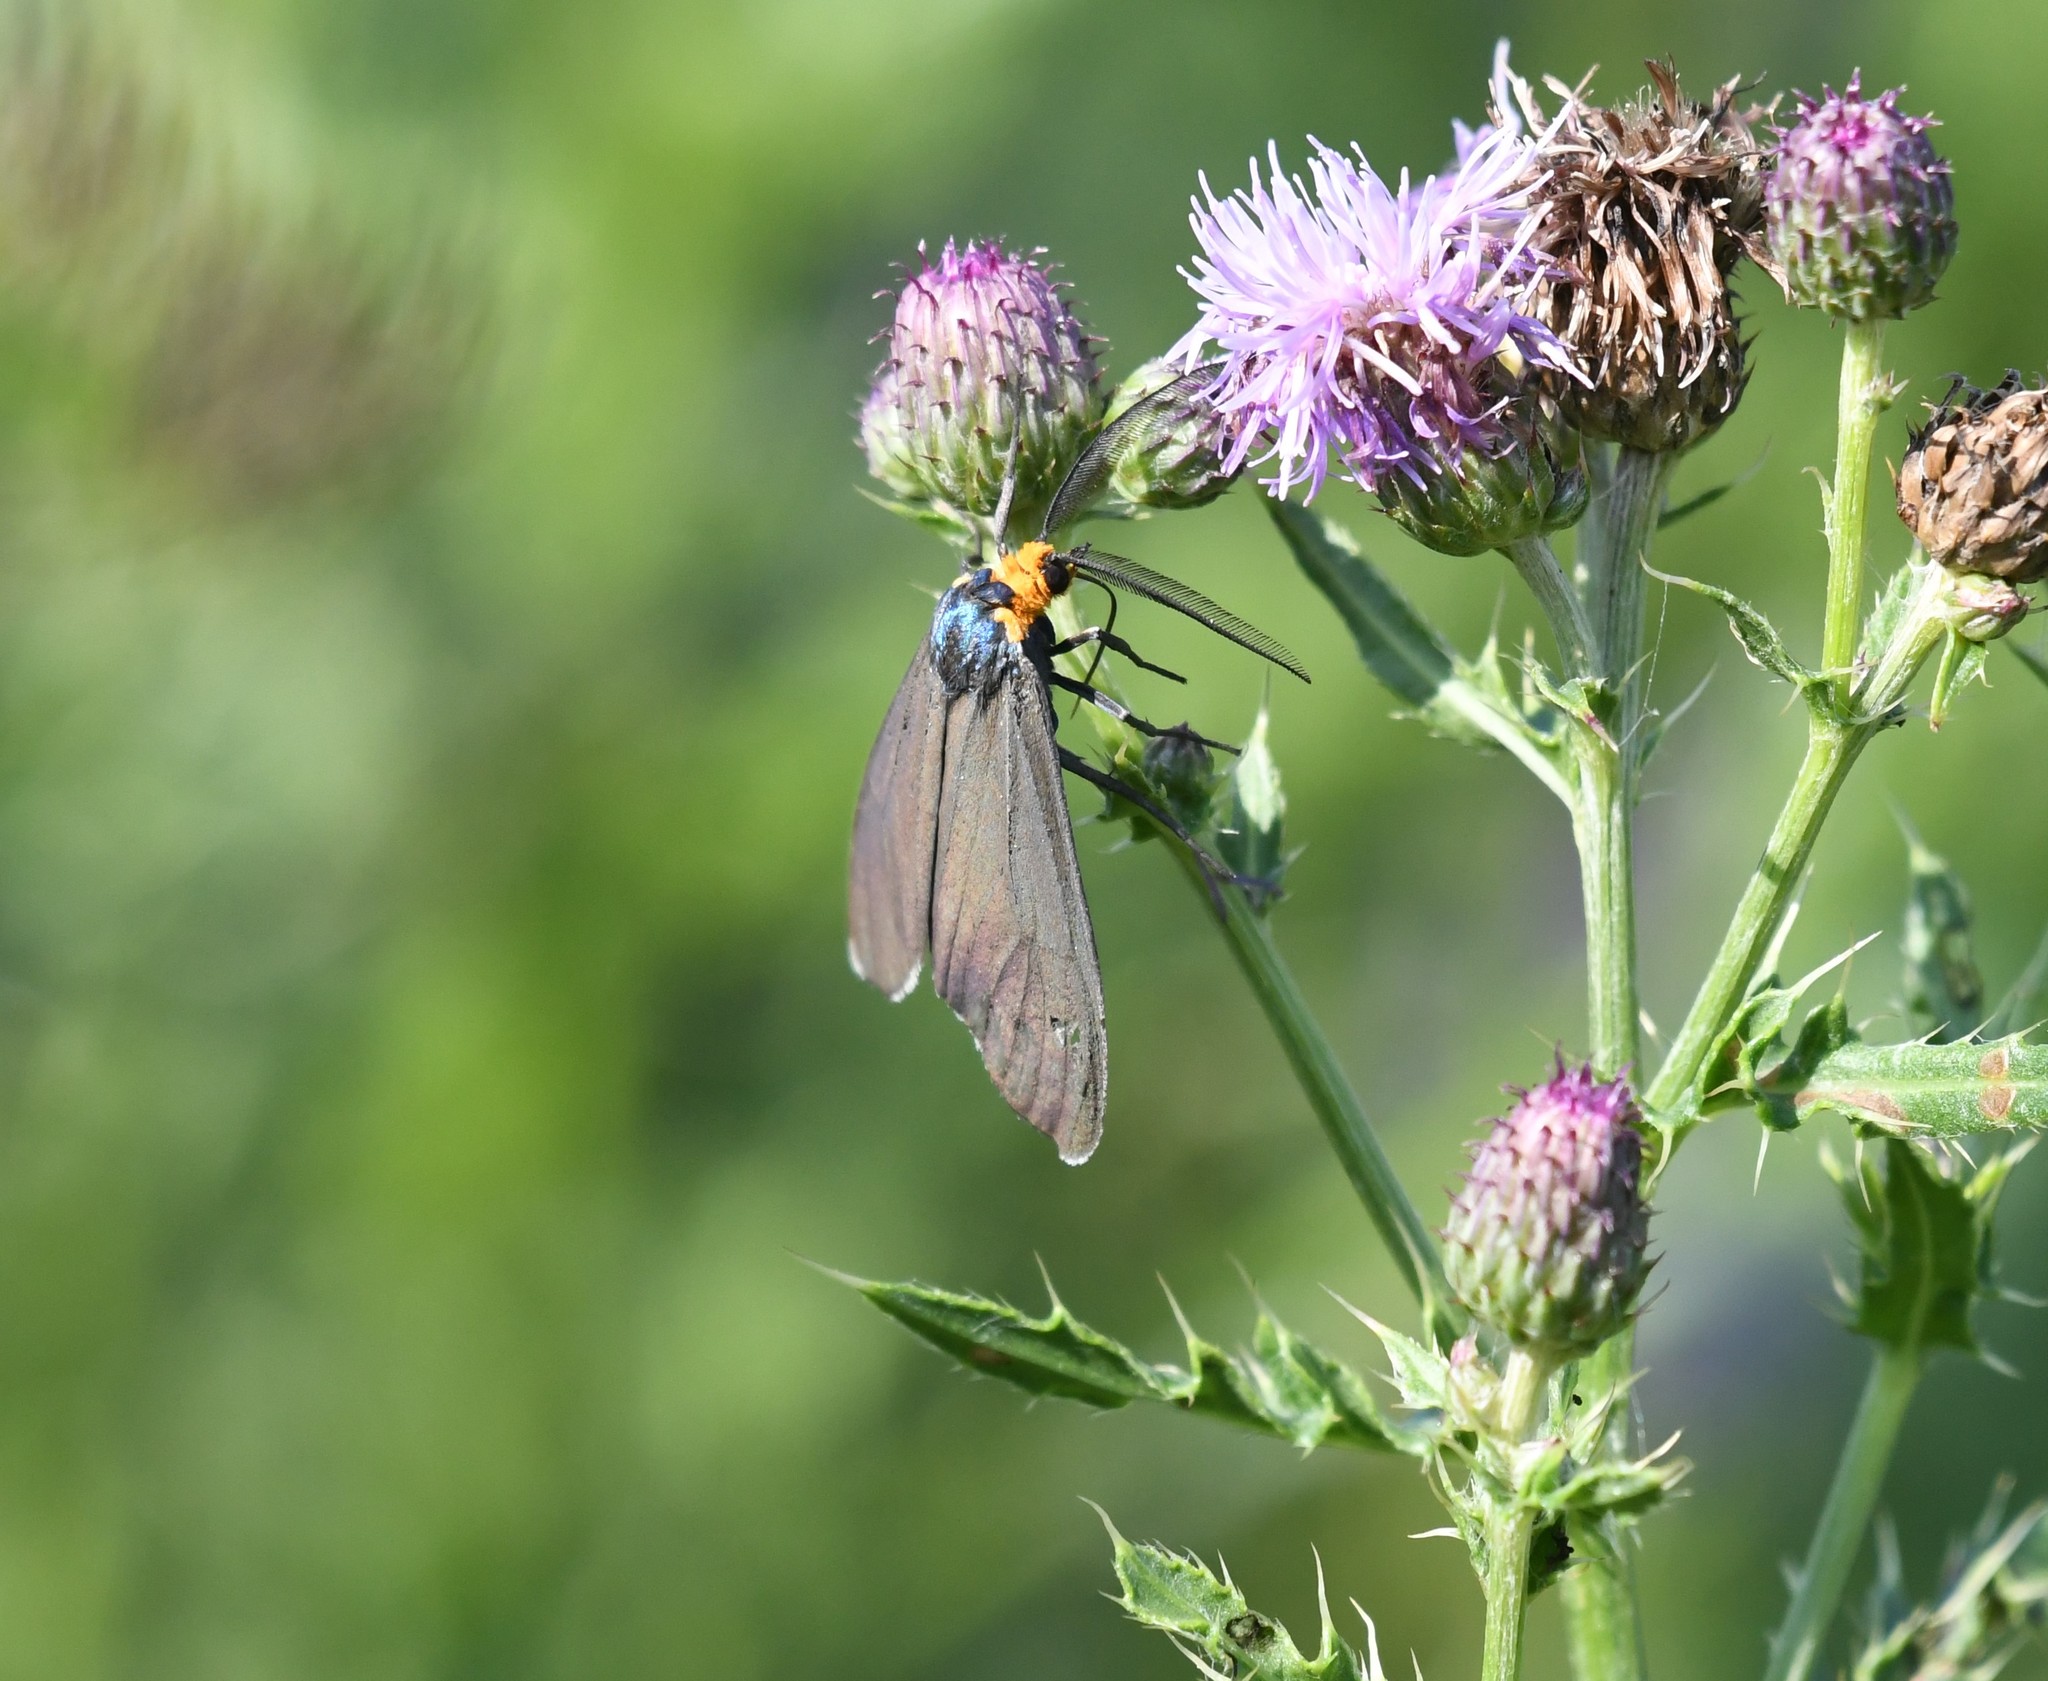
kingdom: Animalia
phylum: Arthropoda
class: Insecta
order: Lepidoptera
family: Erebidae
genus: Ctenucha
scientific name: Ctenucha virginica
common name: Virginia ctenucha moth
